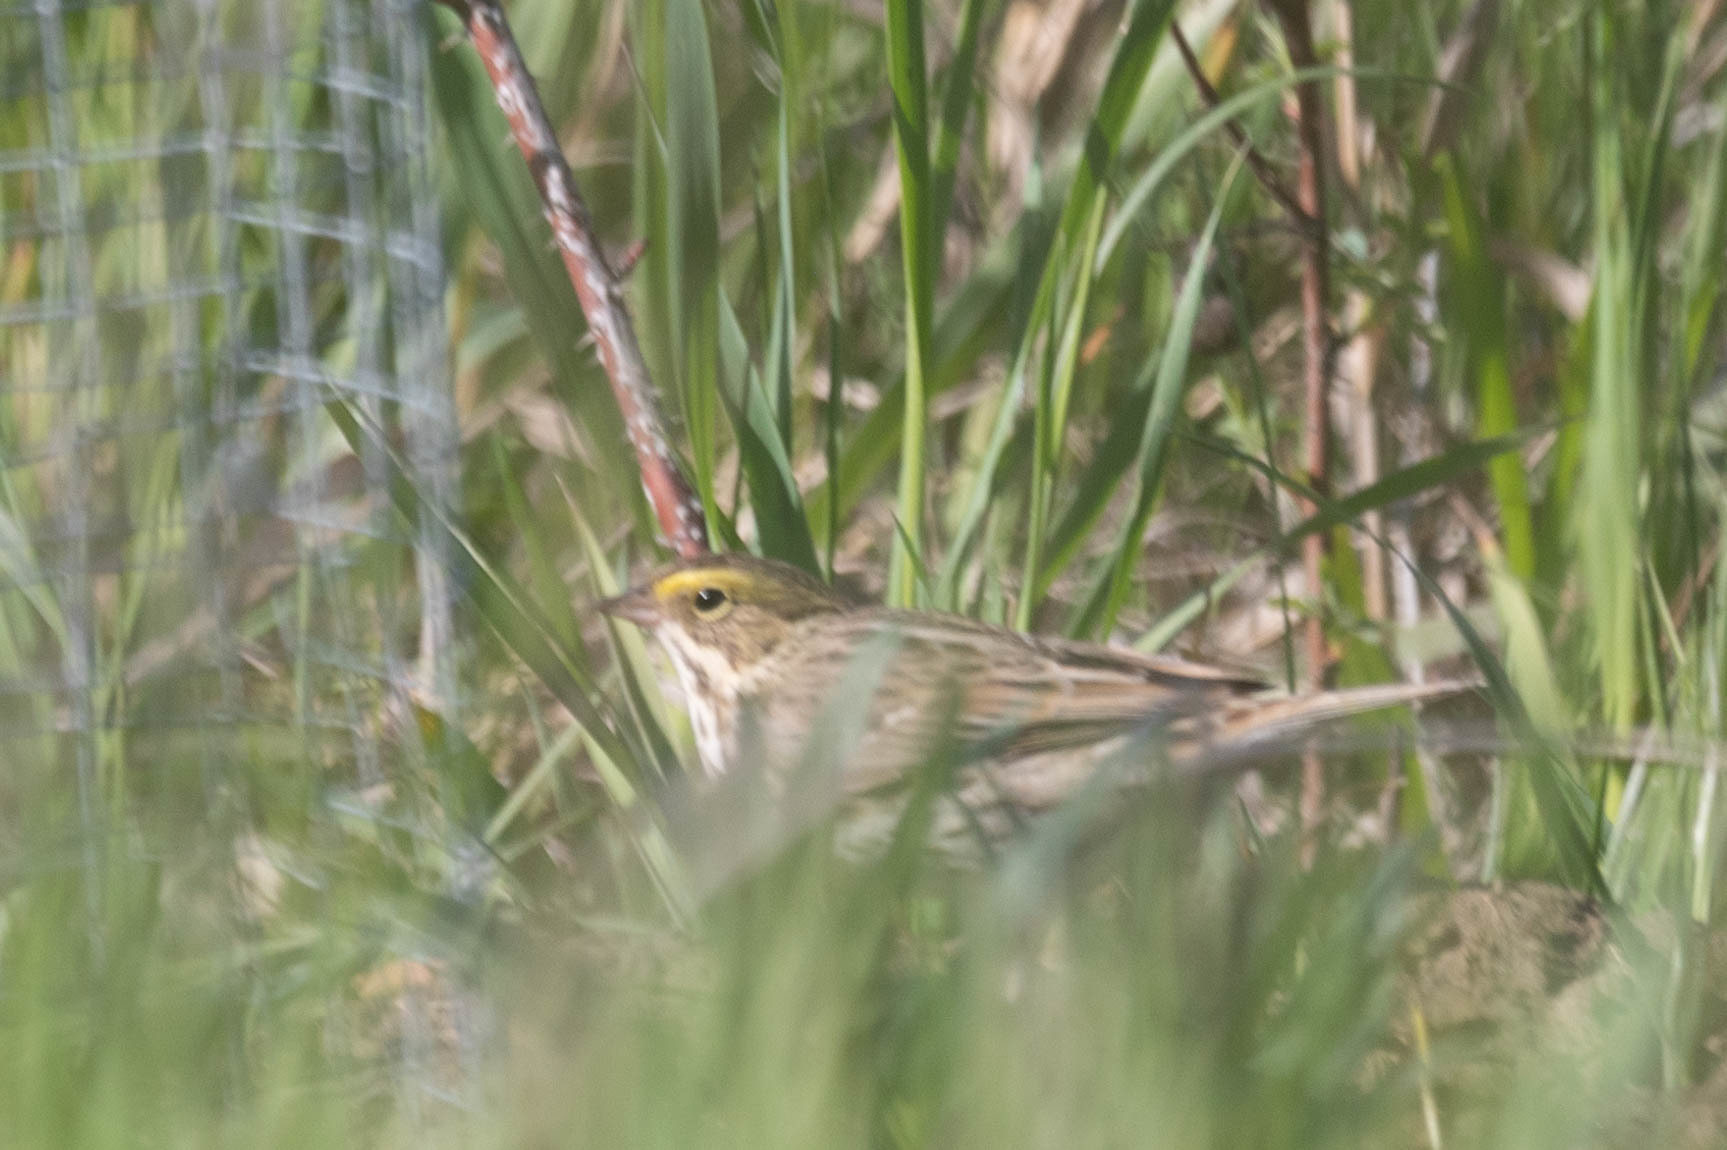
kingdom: Animalia
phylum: Chordata
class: Aves
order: Passeriformes
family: Passerellidae
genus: Passerculus
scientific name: Passerculus sandwichensis
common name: Savannah sparrow
